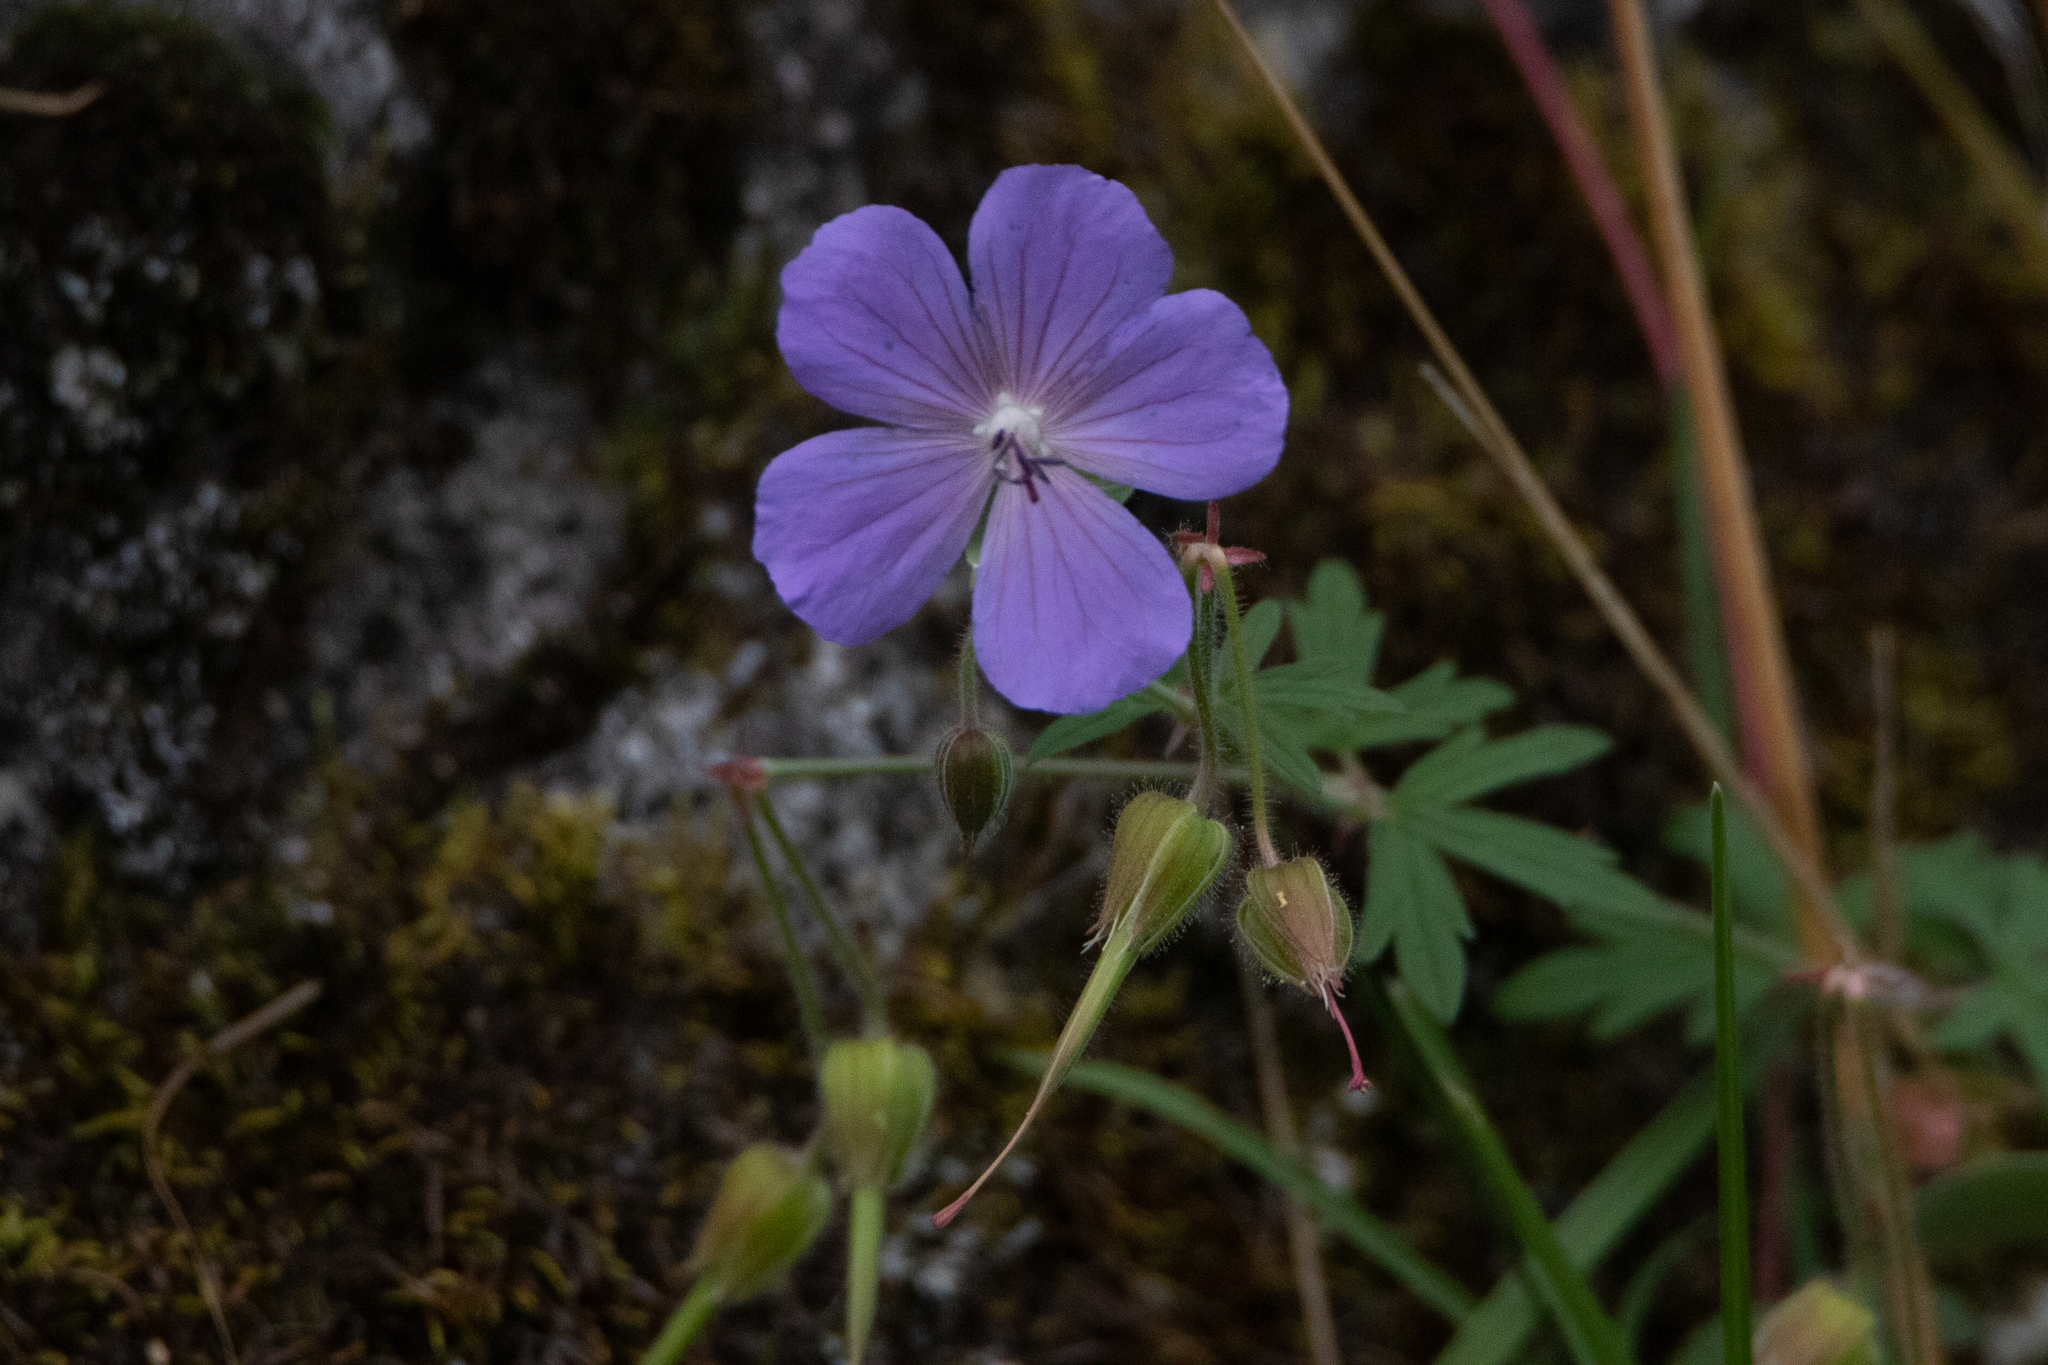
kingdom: Plantae
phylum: Tracheophyta
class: Magnoliopsida
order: Geraniales
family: Geraniaceae
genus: Geranium
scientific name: Geranium pratense
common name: Meadow crane's-bill
